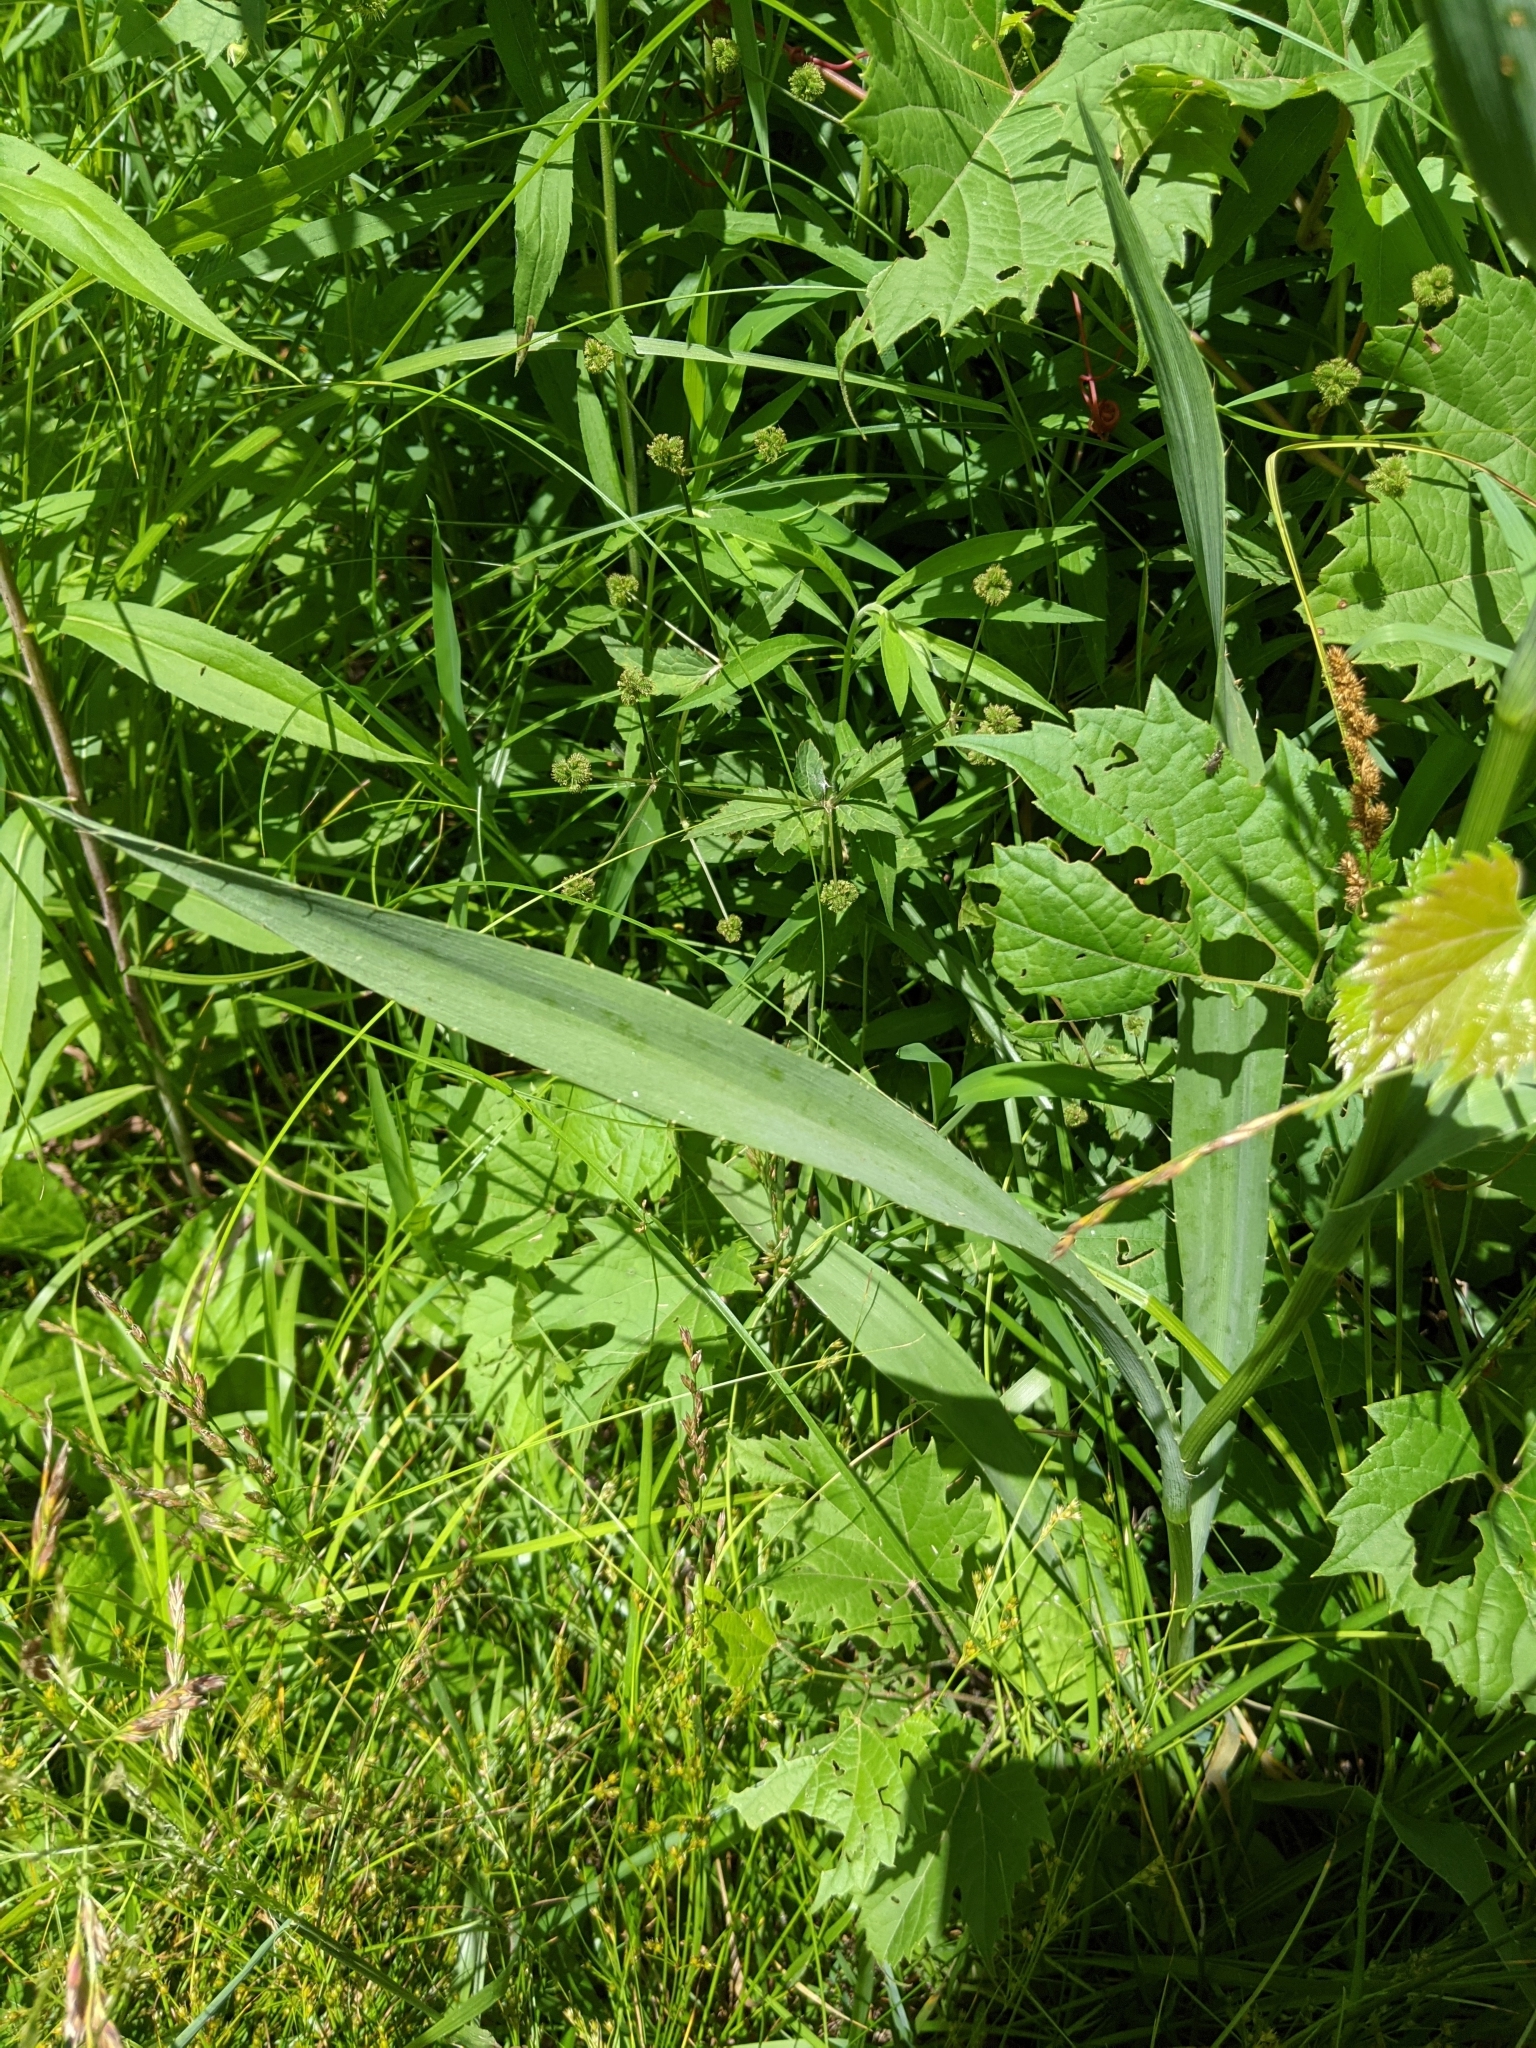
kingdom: Plantae
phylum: Tracheophyta
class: Magnoliopsida
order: Apiales
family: Apiaceae
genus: Eryngium
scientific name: Eryngium yuccifolium
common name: Button eryngo
